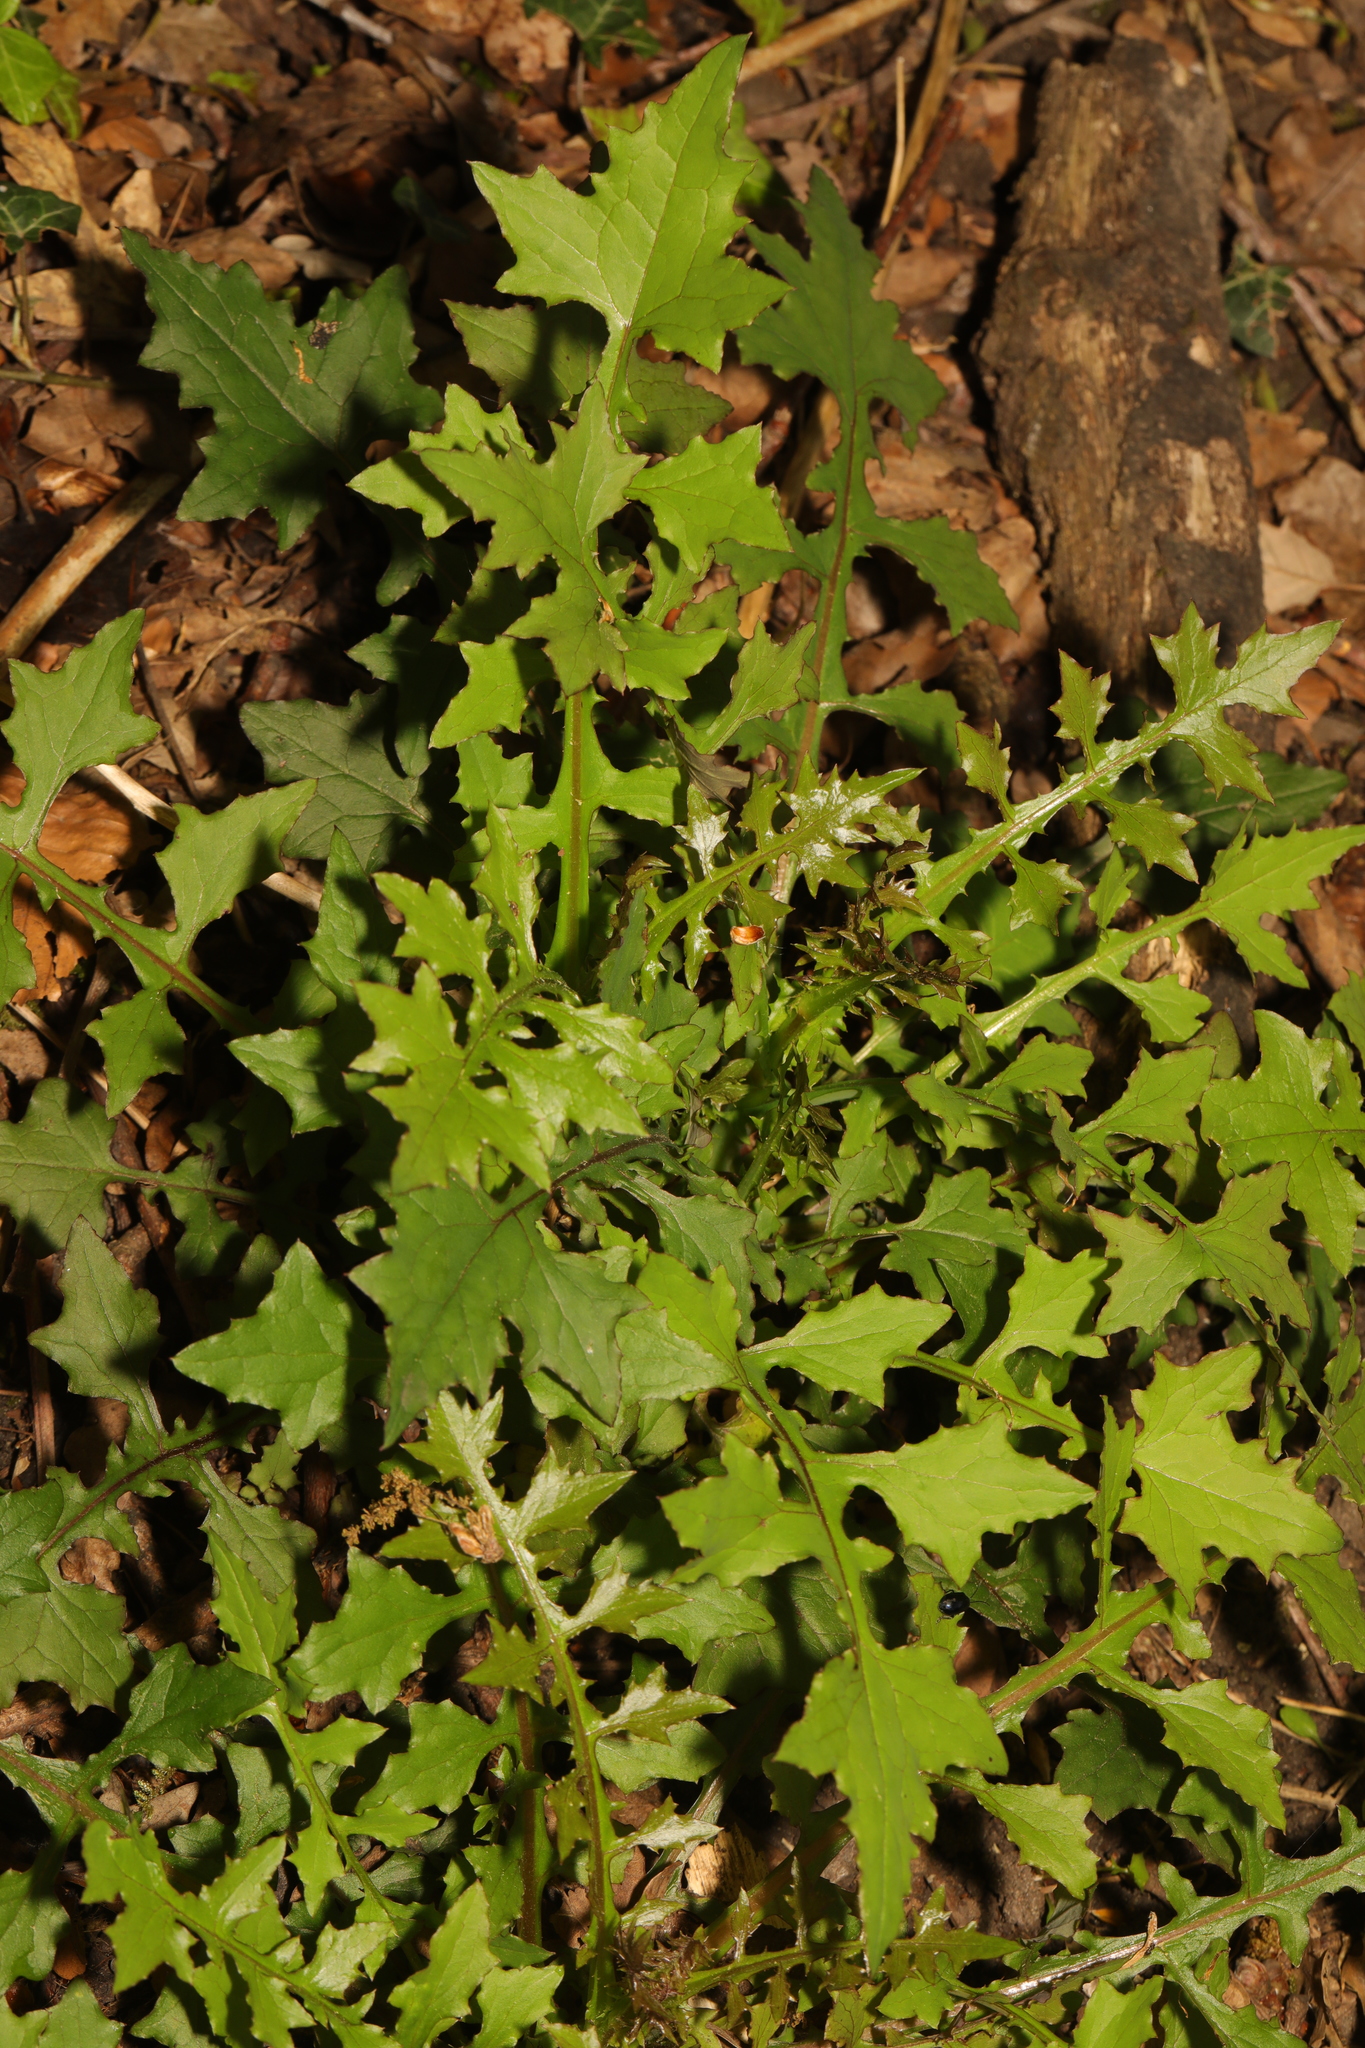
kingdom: Plantae
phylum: Tracheophyta
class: Magnoliopsida
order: Asterales
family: Asteraceae
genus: Mycelis
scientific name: Mycelis muralis
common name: Wall lettuce
